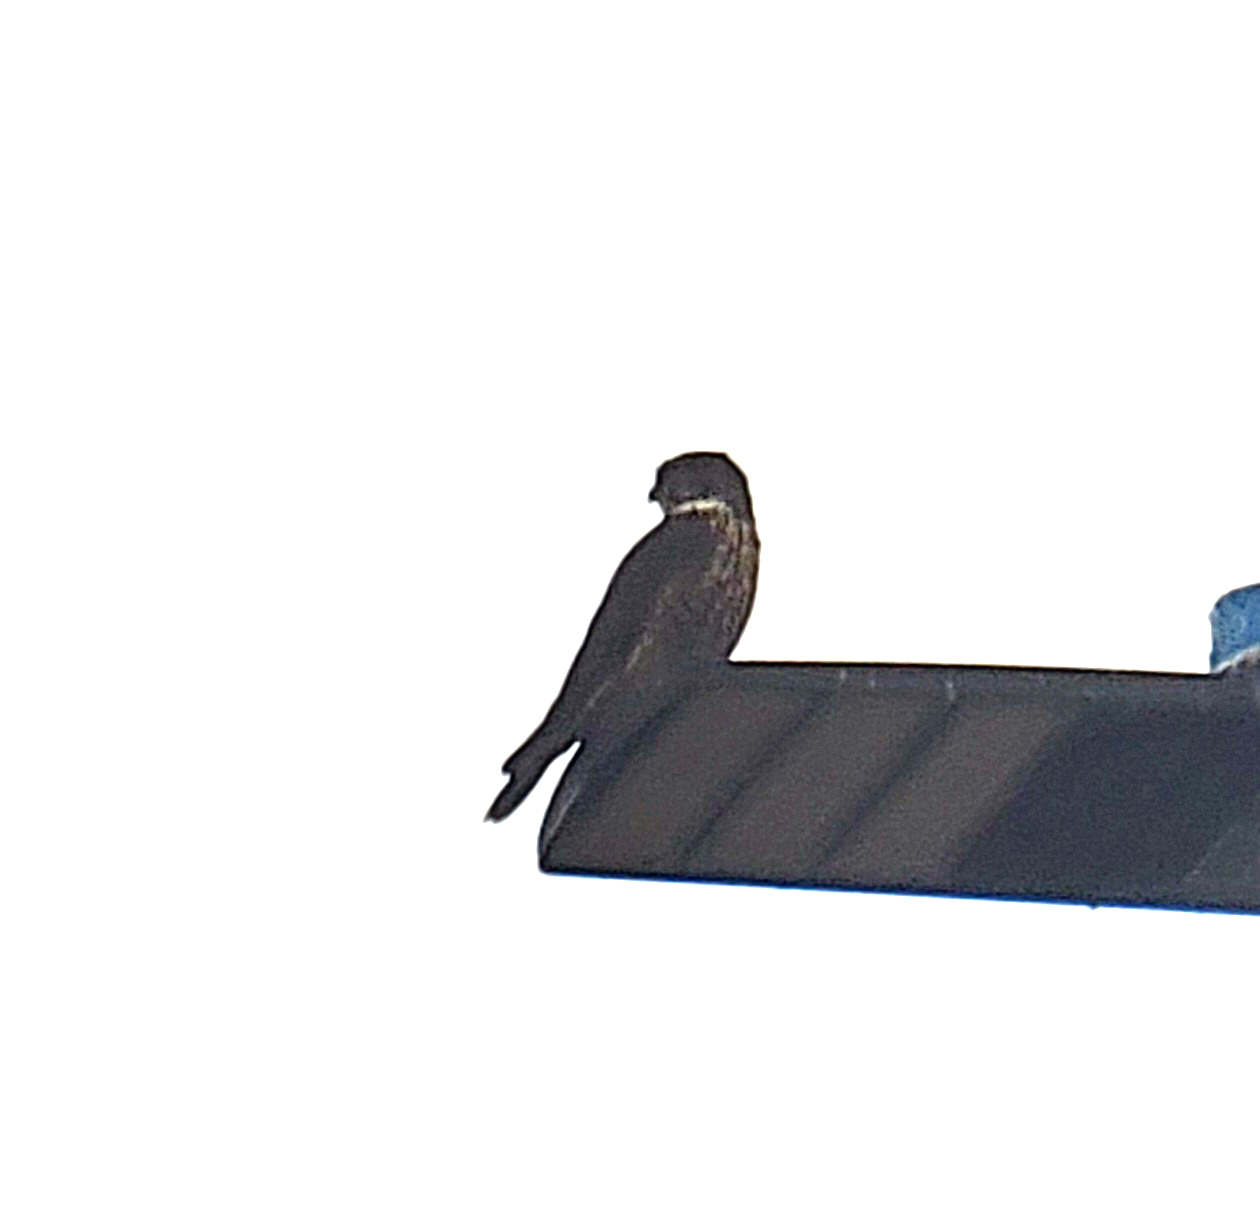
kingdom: Animalia
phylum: Chordata
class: Aves
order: Falconiformes
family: Falconidae
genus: Falco
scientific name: Falco columbarius
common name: Merlin
